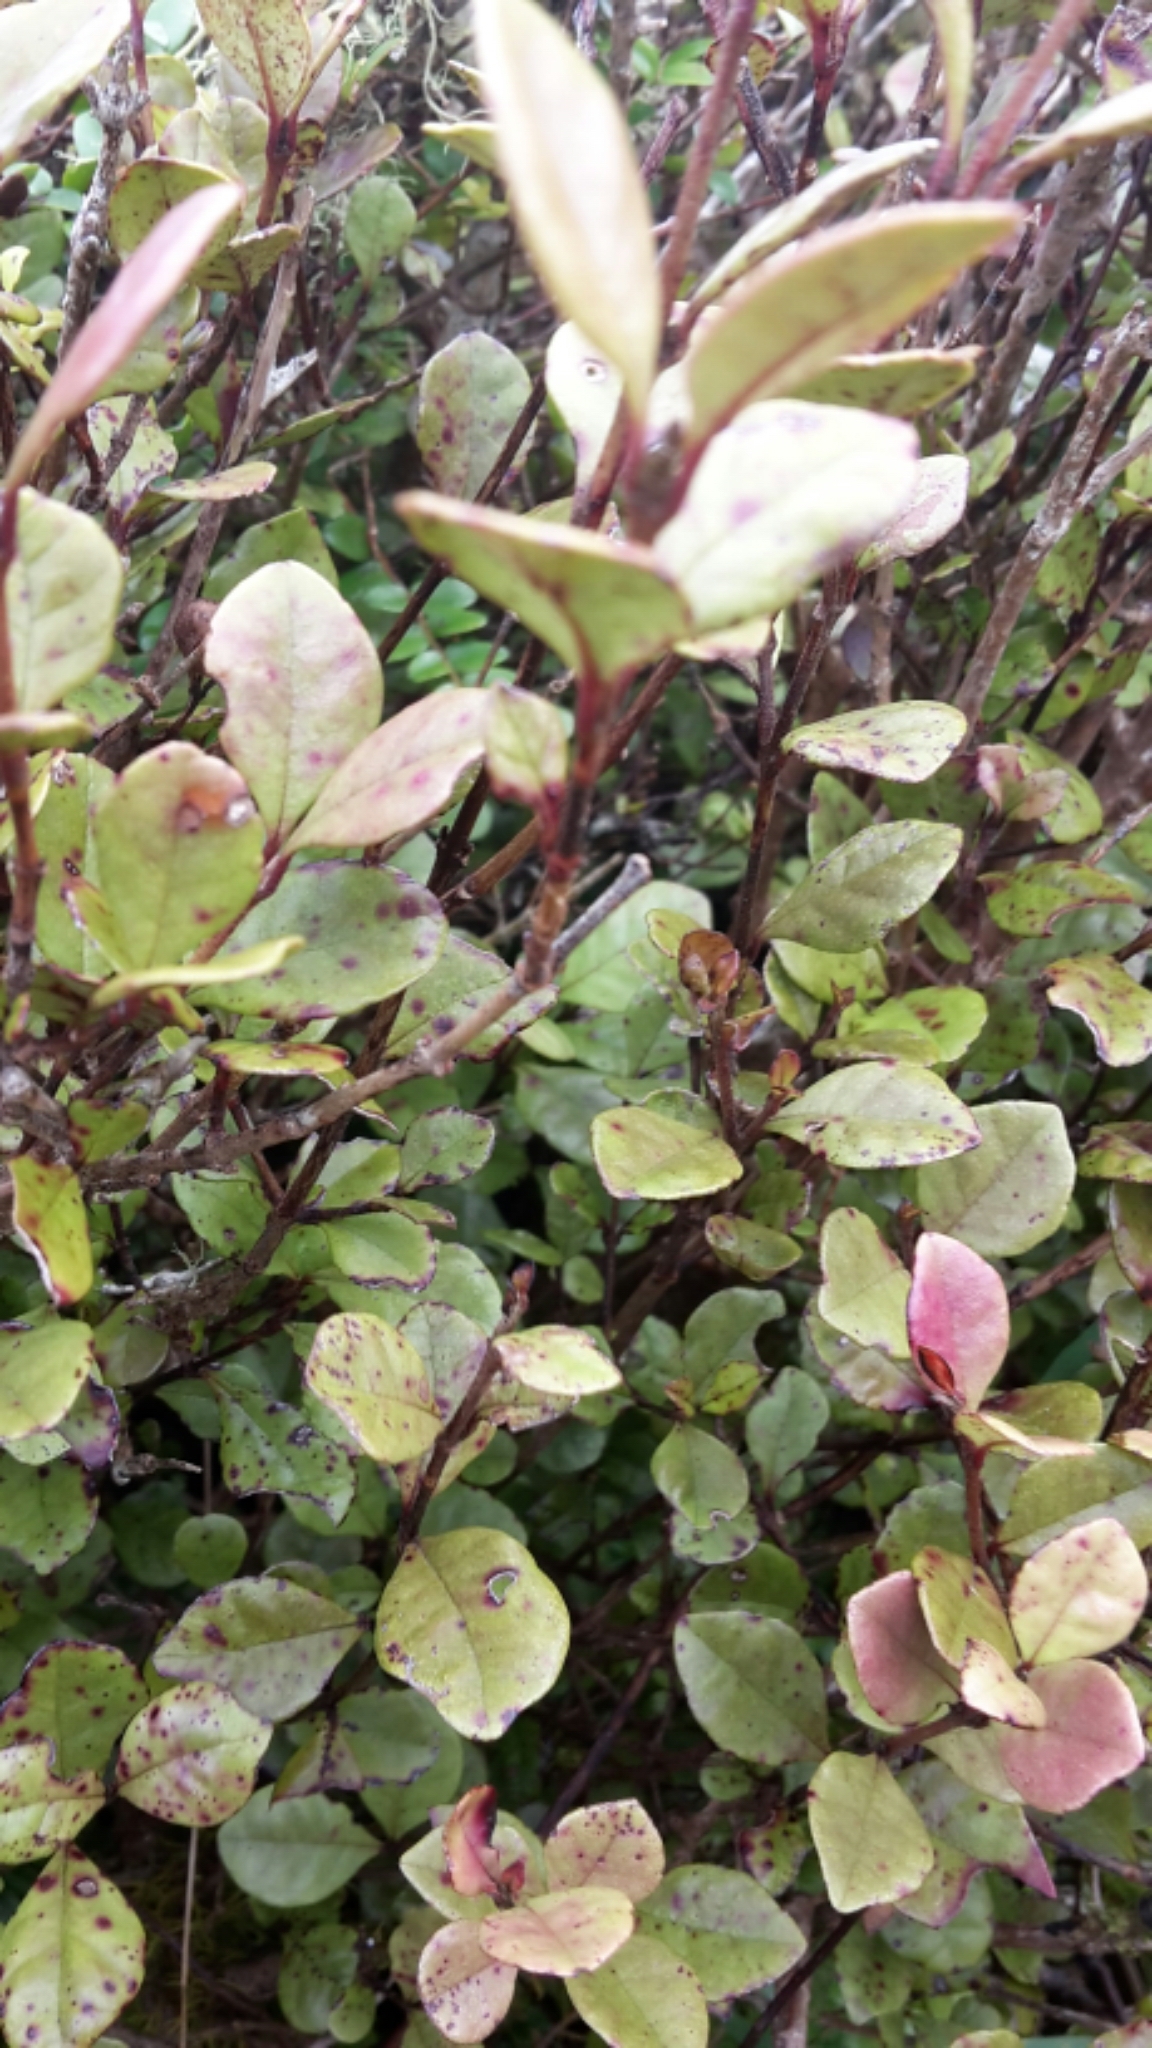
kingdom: Plantae
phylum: Tracheophyta
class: Magnoliopsida
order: Myrtales
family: Myrtaceae
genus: Lophomyrtus
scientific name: Lophomyrtus ralphii
